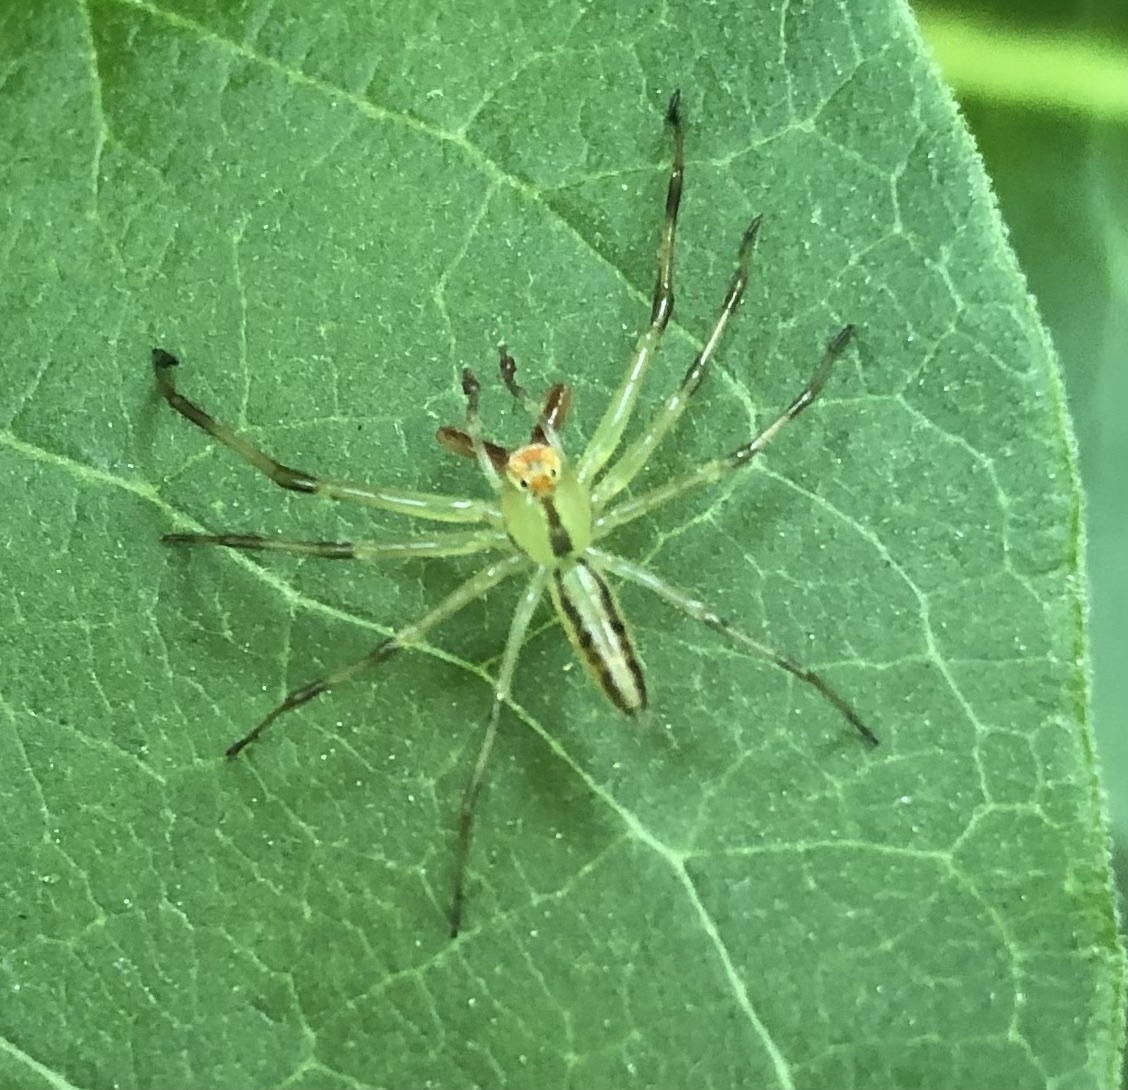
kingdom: Animalia
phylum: Arthropoda
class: Arachnida
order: Araneae
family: Salticidae
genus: Lyssomanes
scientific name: Lyssomanes viridis
